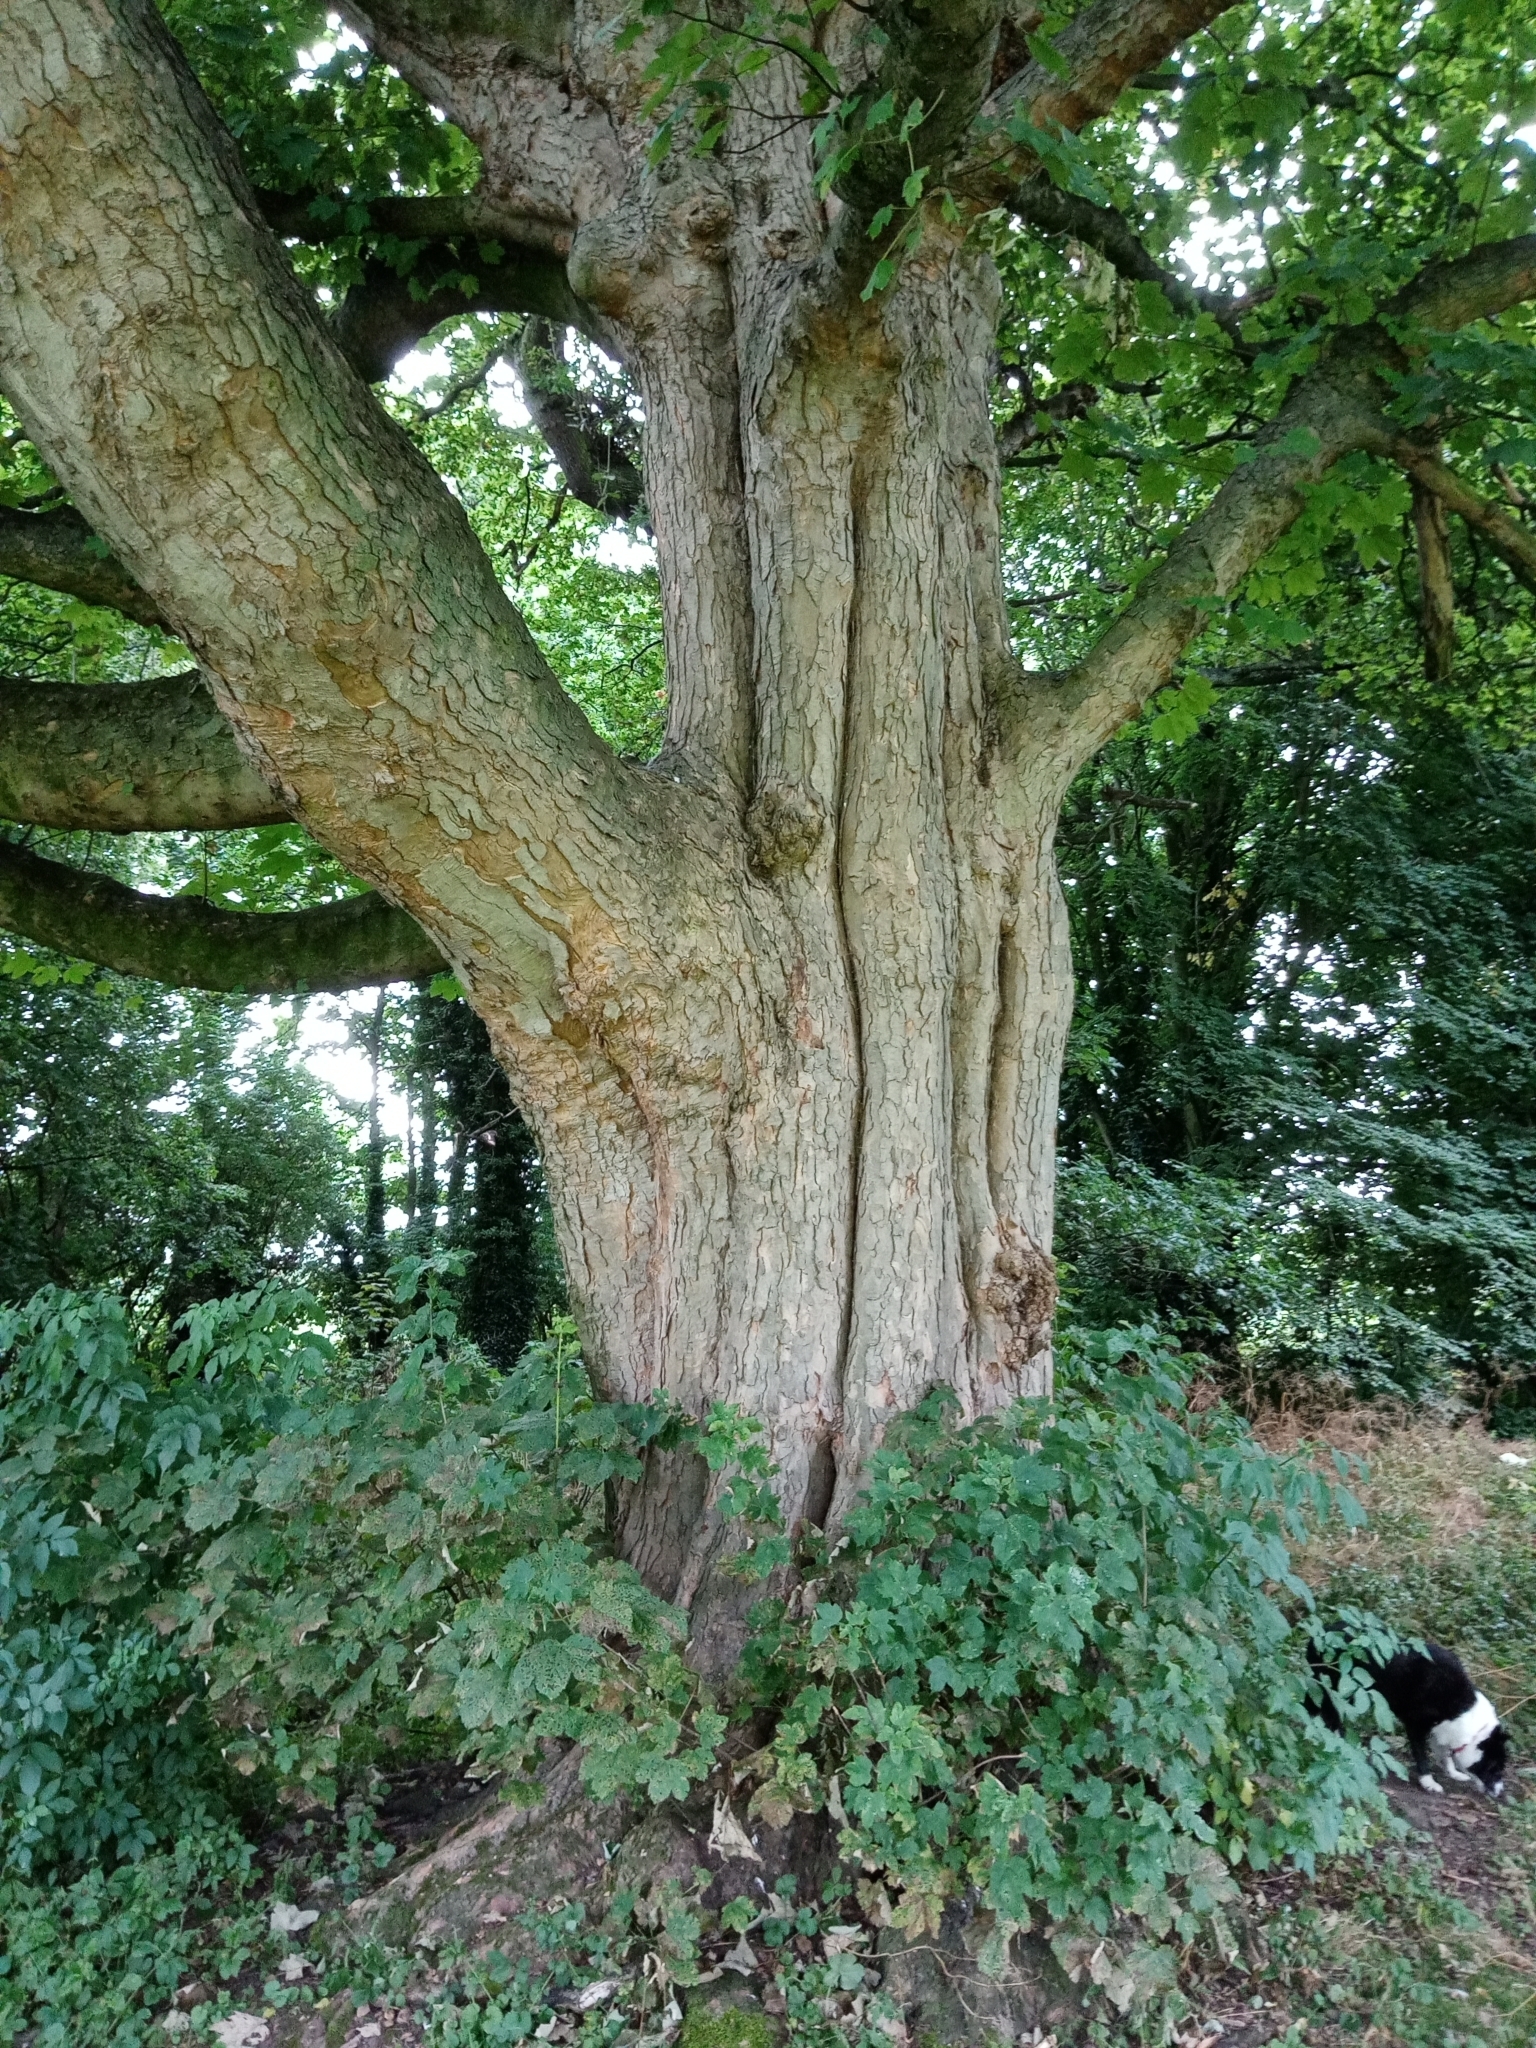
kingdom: Plantae
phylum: Tracheophyta
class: Magnoliopsida
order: Sapindales
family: Sapindaceae
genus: Acer
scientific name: Acer pseudoplatanus
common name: Sycamore
